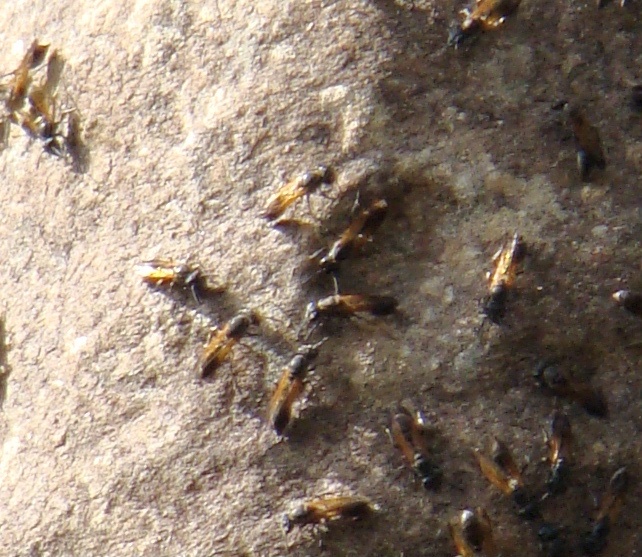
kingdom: Animalia
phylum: Arthropoda
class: Insecta
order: Hymenoptera
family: Eumenidae
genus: Polybia
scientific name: Polybia rejecta
